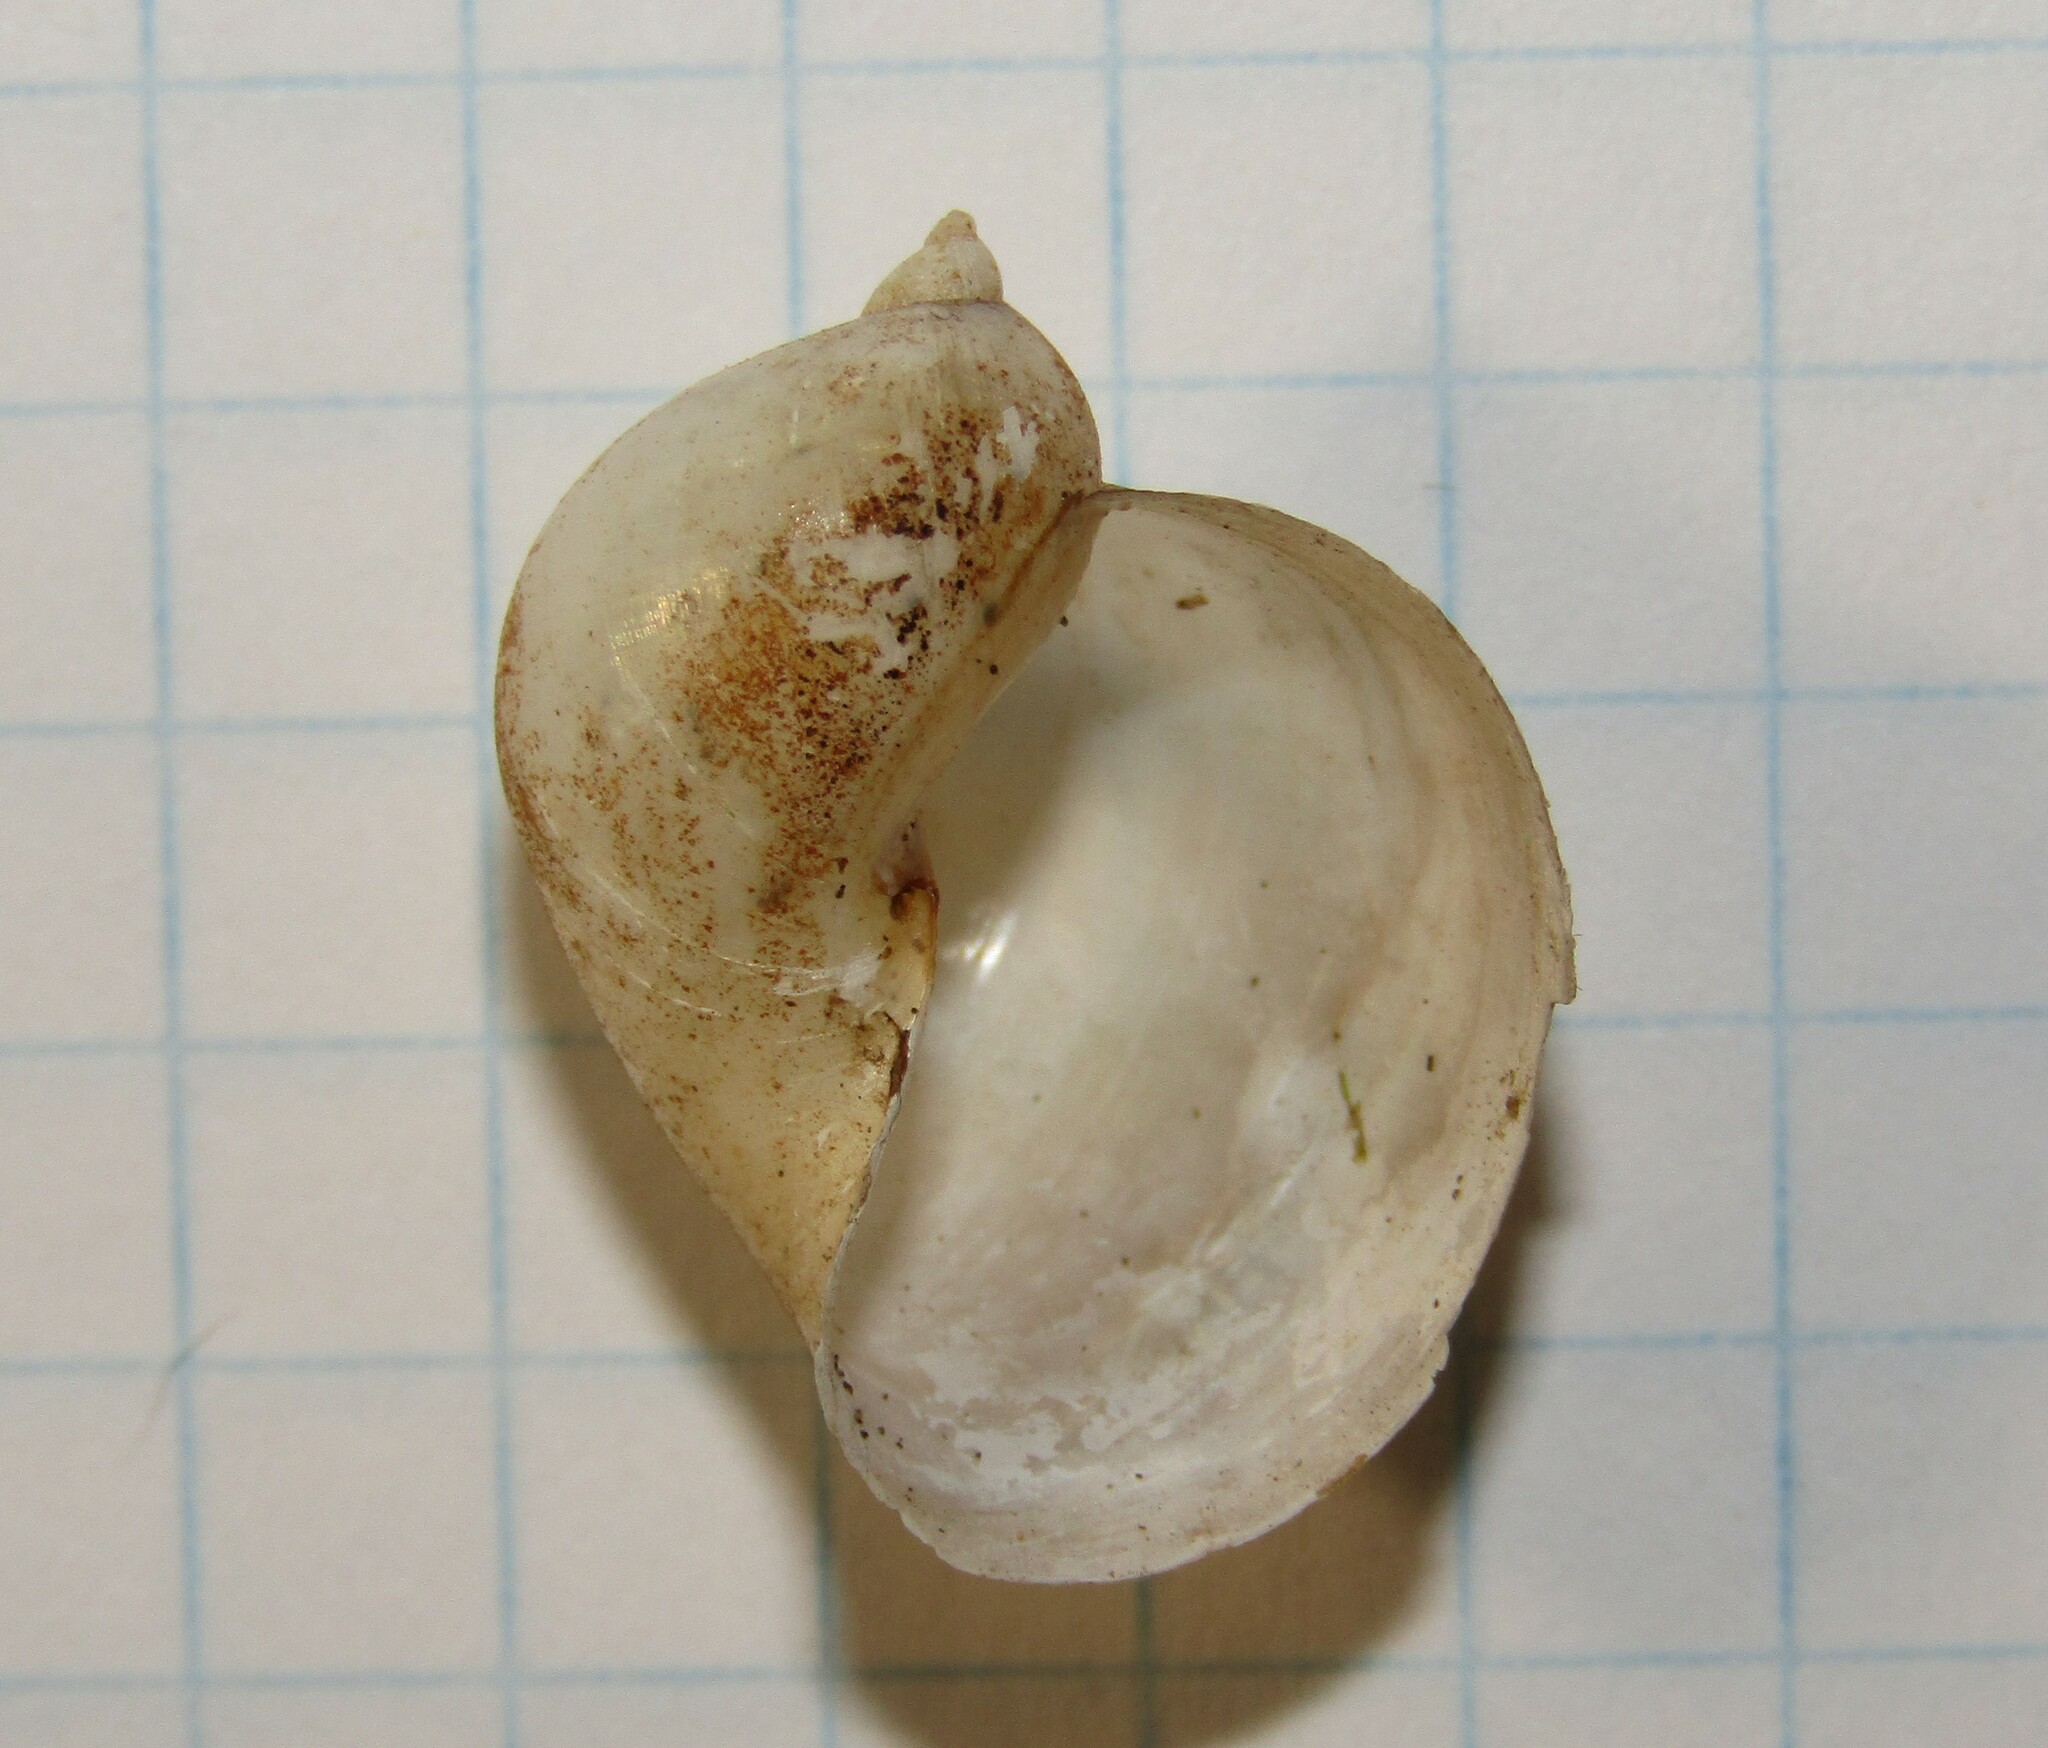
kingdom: Animalia
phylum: Mollusca
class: Gastropoda
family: Lymnaeidae
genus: Radix
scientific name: Radix auricularia
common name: Ear pond snail
